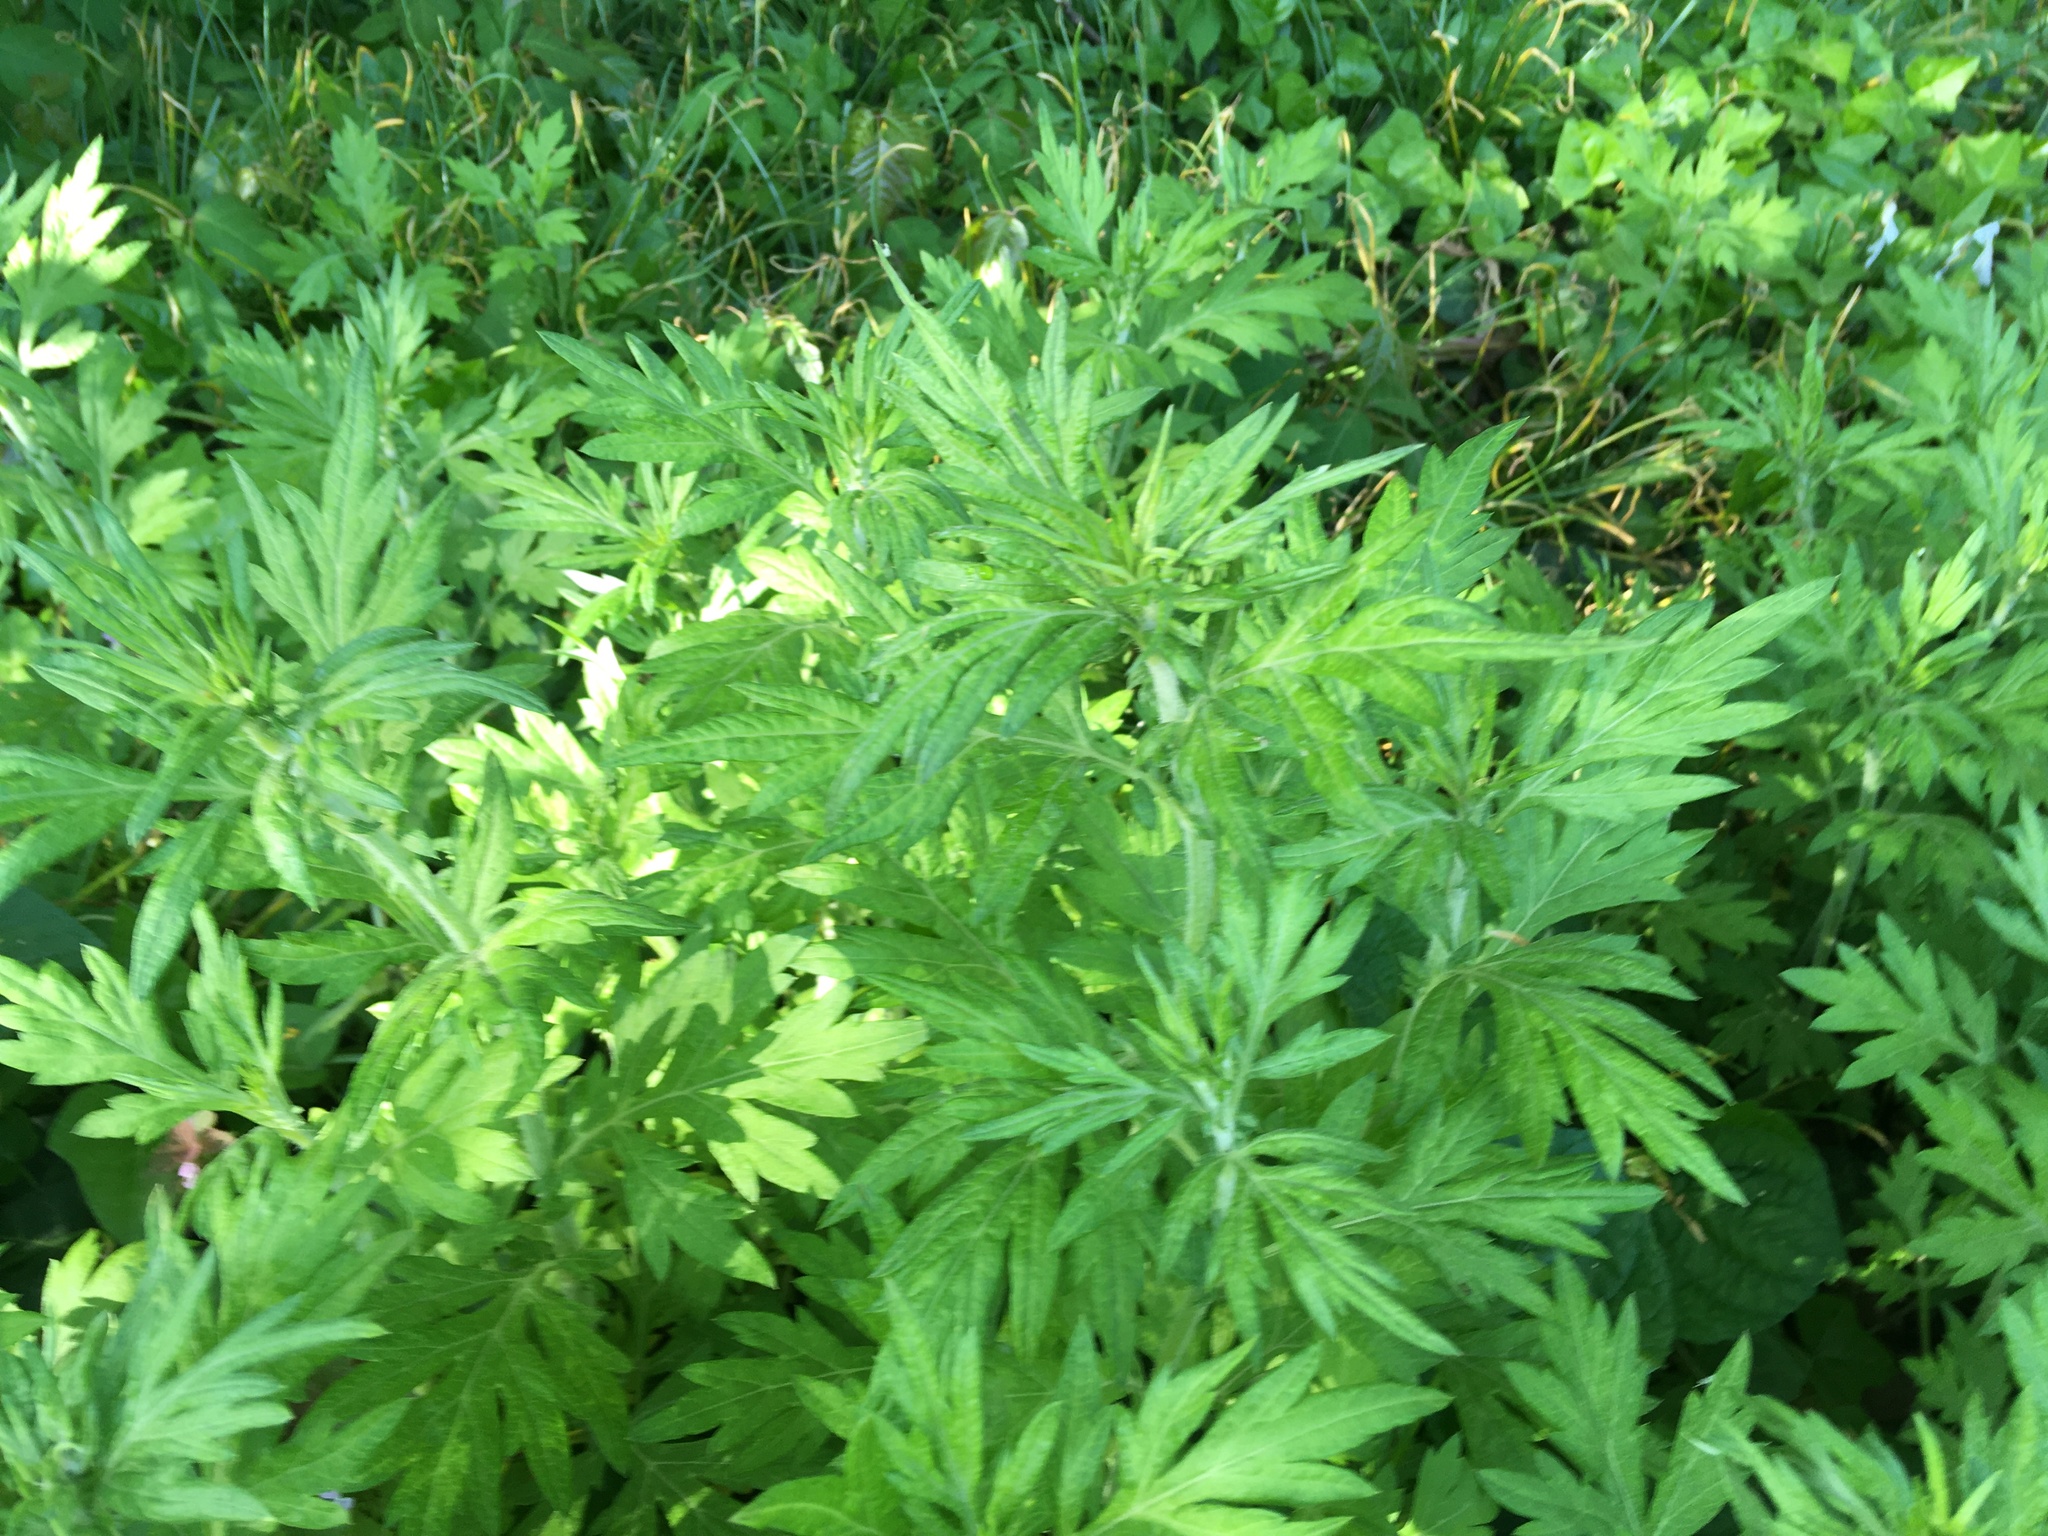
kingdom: Plantae
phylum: Tracheophyta
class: Magnoliopsida
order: Asterales
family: Asteraceae
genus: Artemisia
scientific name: Artemisia vulgaris
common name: Mugwort
